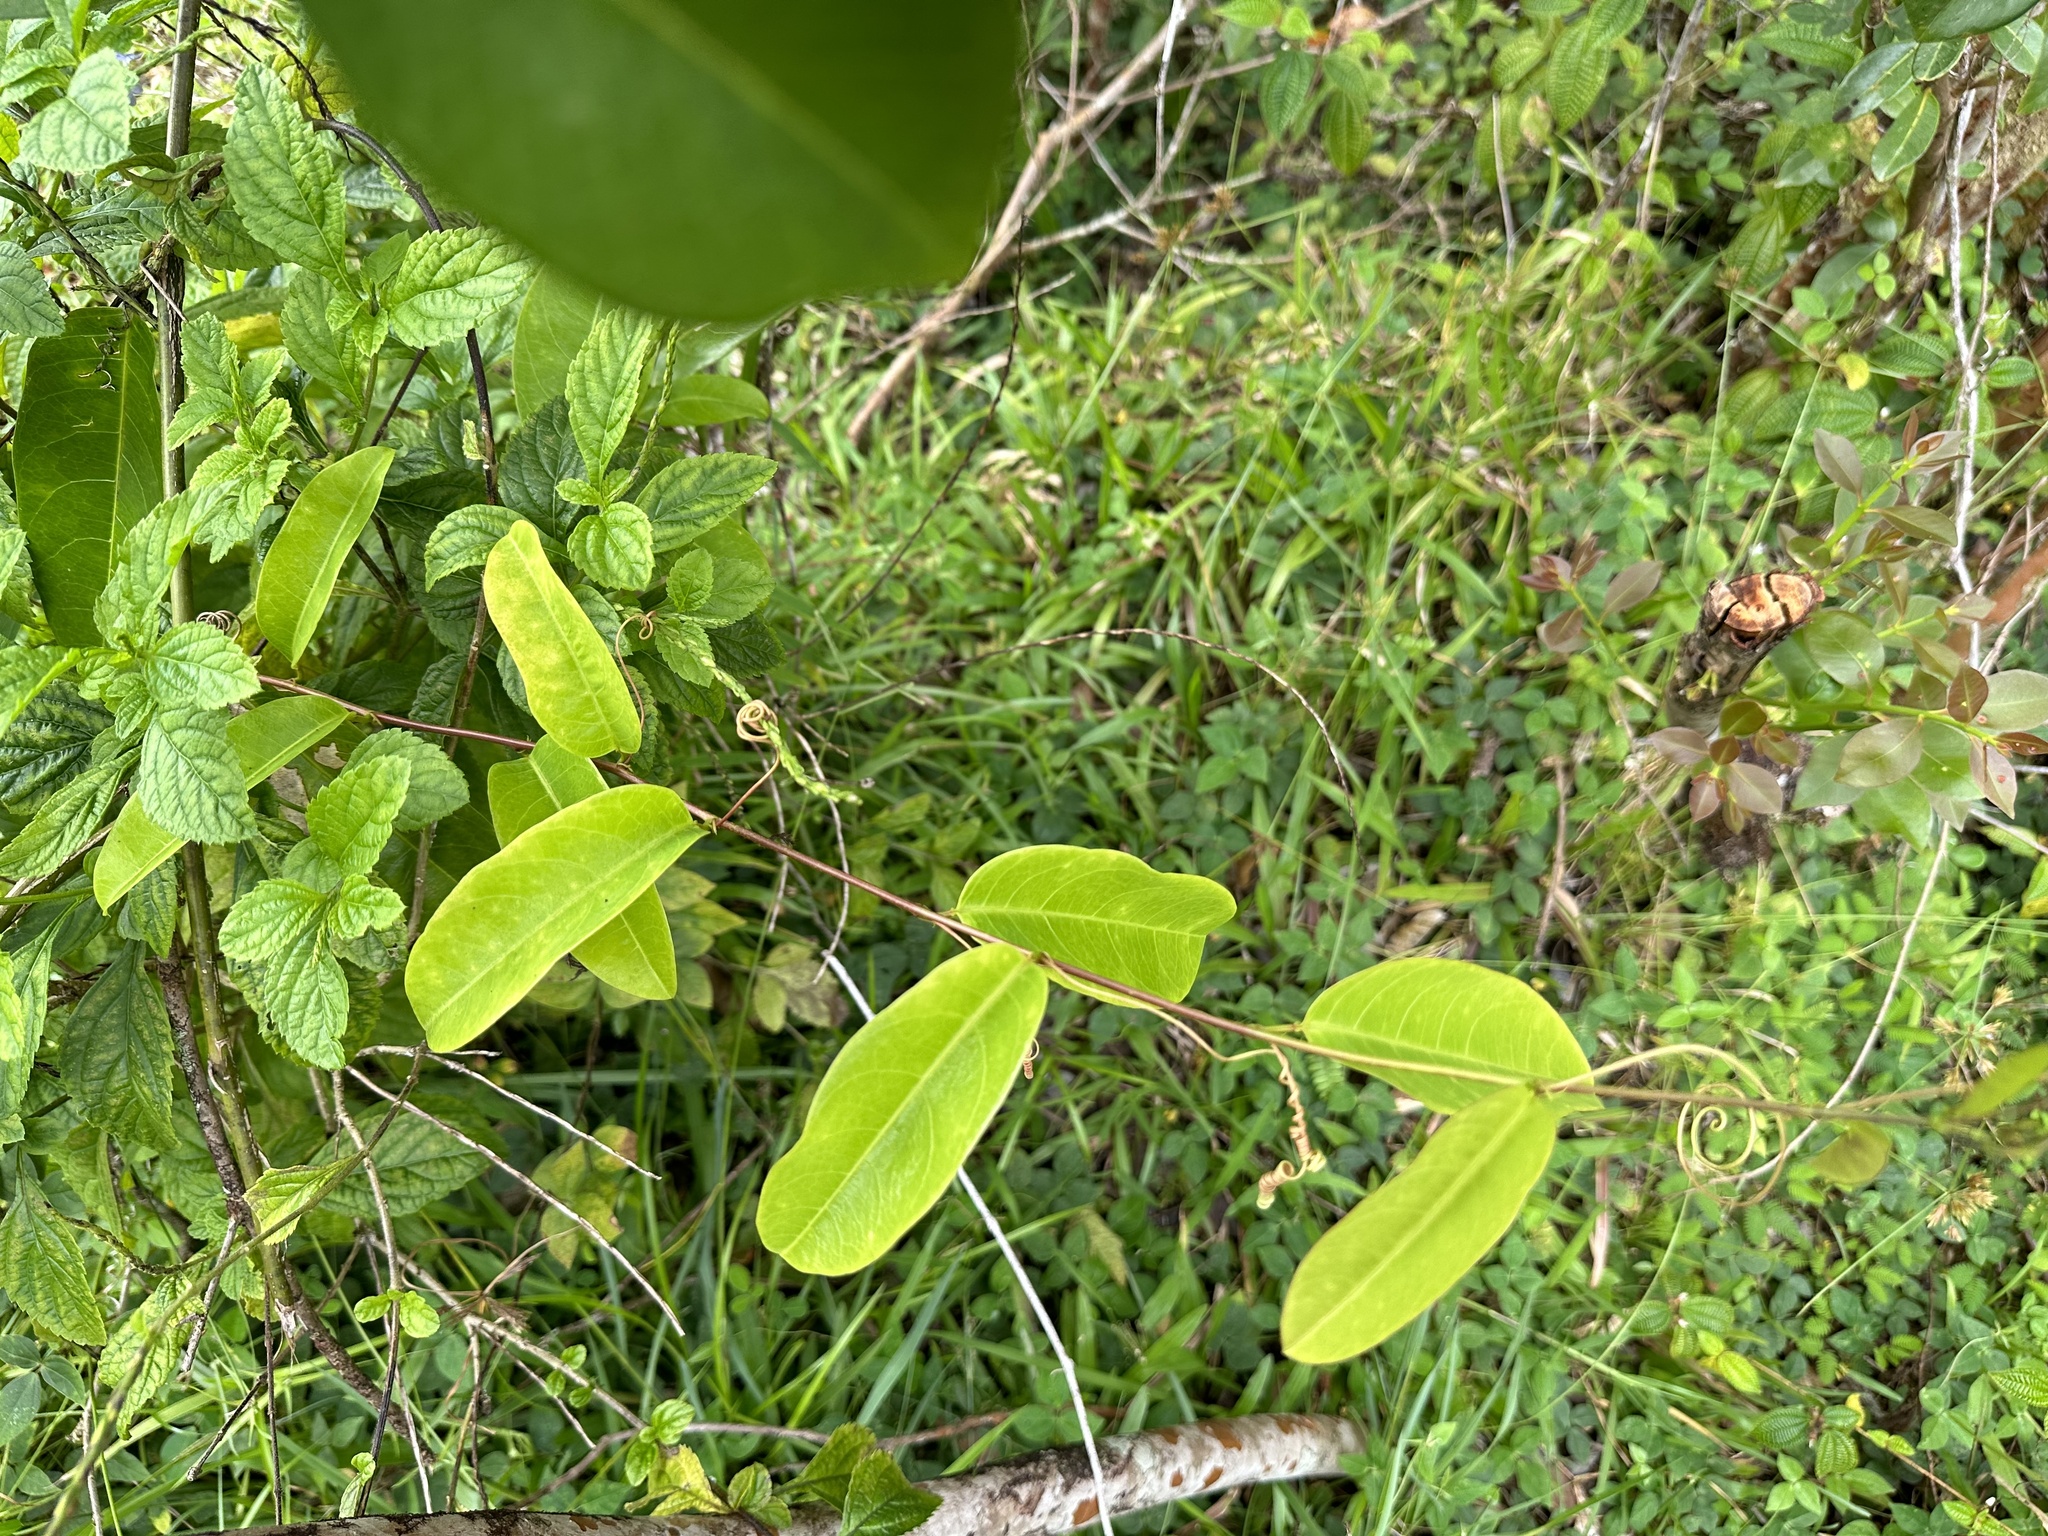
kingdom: Plantae
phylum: Tracheophyta
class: Magnoliopsida
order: Malpighiales
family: Passifloraceae
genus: Passiflora
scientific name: Passiflora laurifolia
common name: Bell apple
